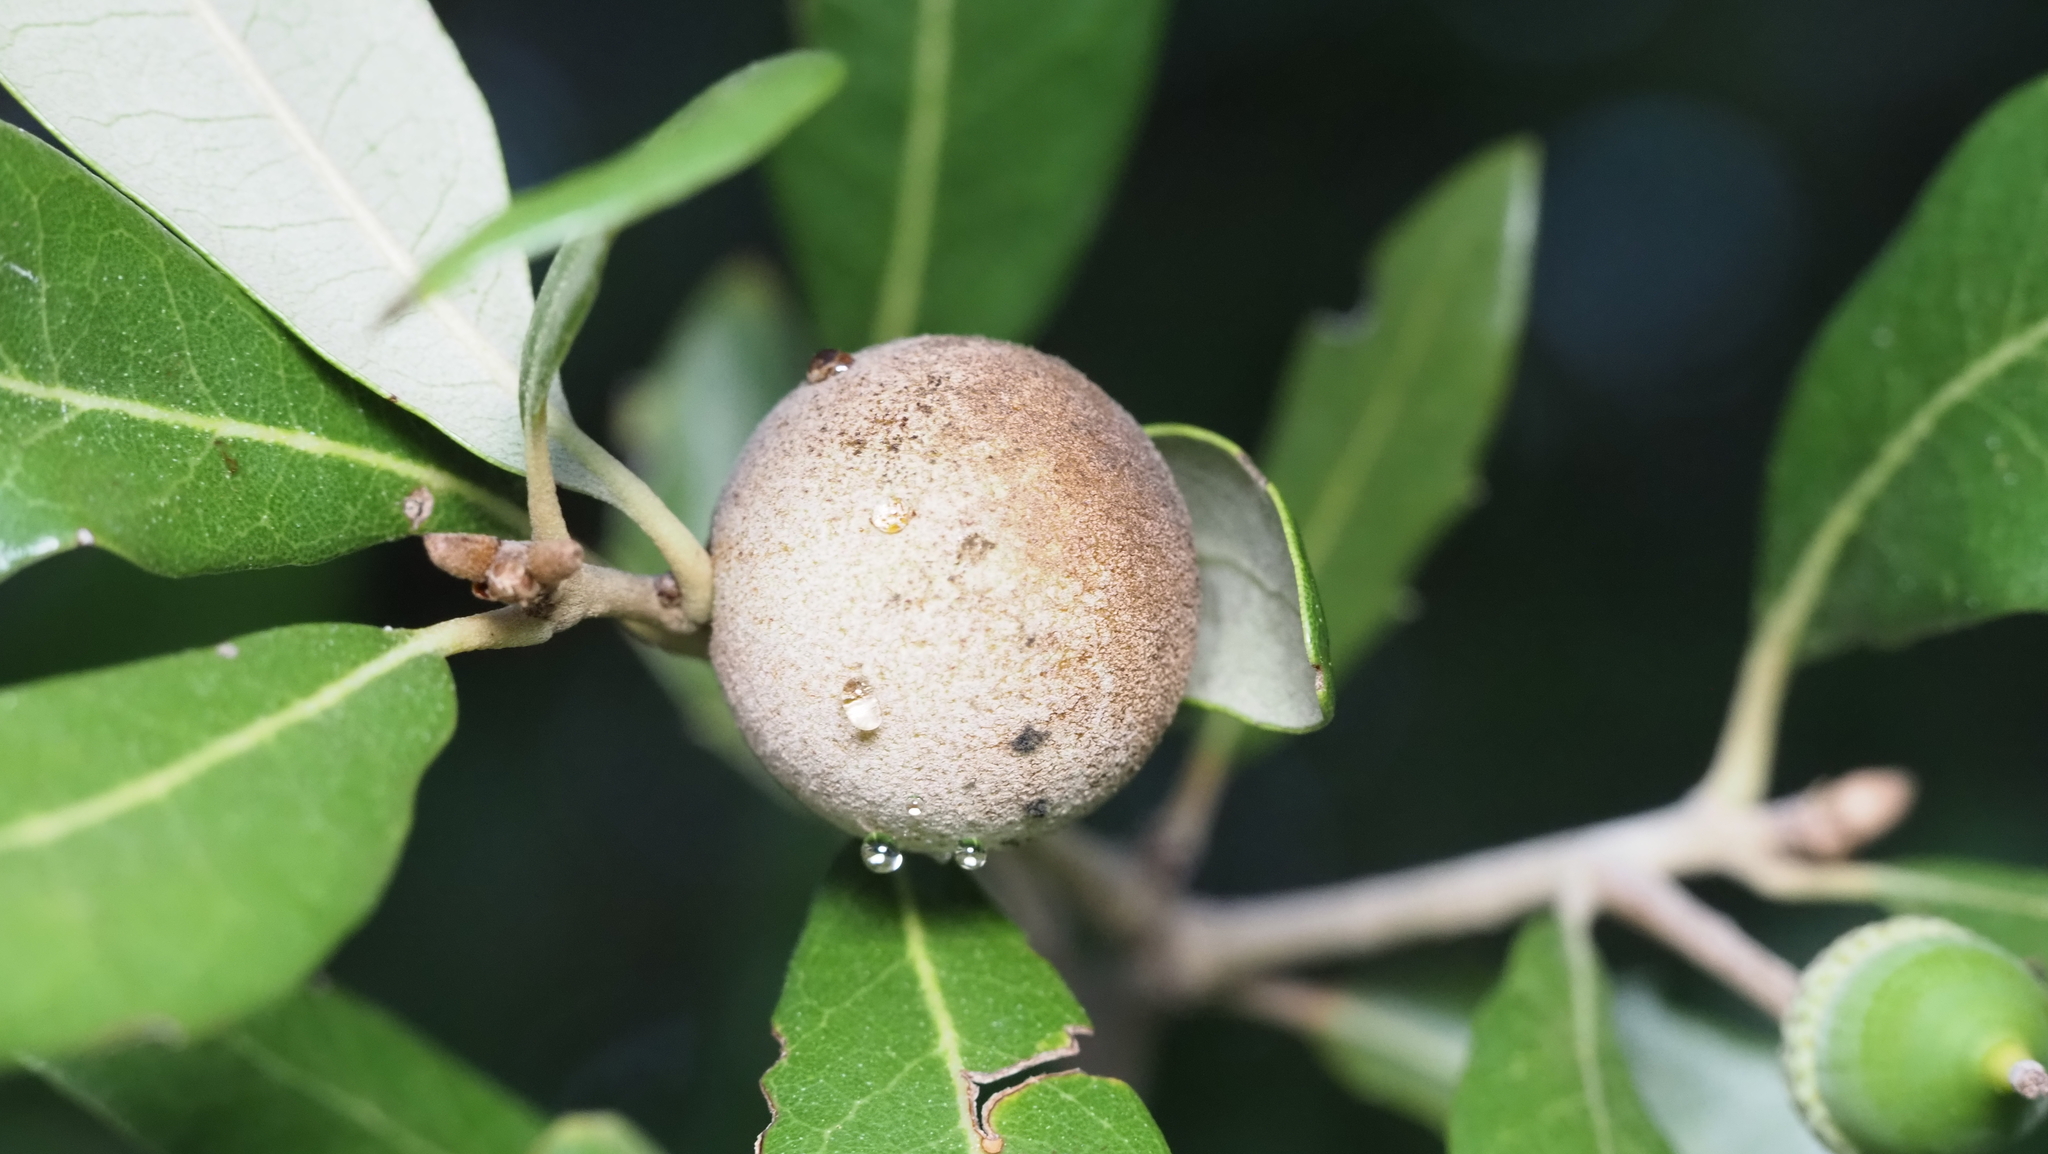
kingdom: Animalia
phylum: Arthropoda
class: Insecta
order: Hymenoptera
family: Cynipidae
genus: Disholcaspis
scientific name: Disholcaspis
